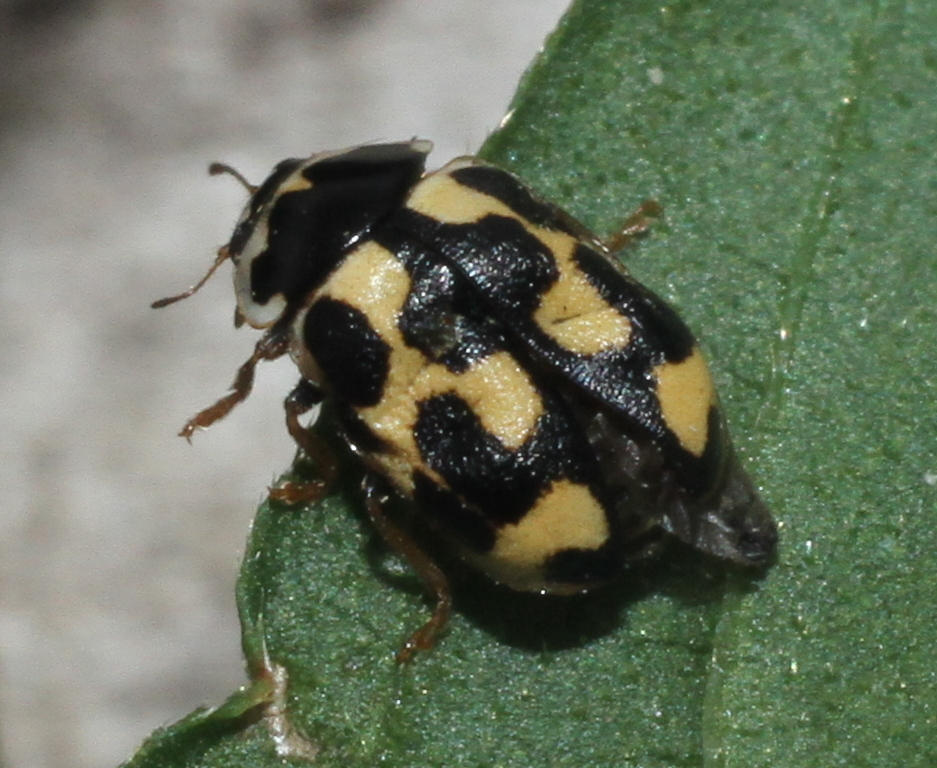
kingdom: Animalia
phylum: Arthropoda
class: Insecta
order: Coleoptera
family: Coccinellidae
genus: Propylaea
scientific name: Propylaea quatuordecimpunctata
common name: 14-spotted ladybird beetle
